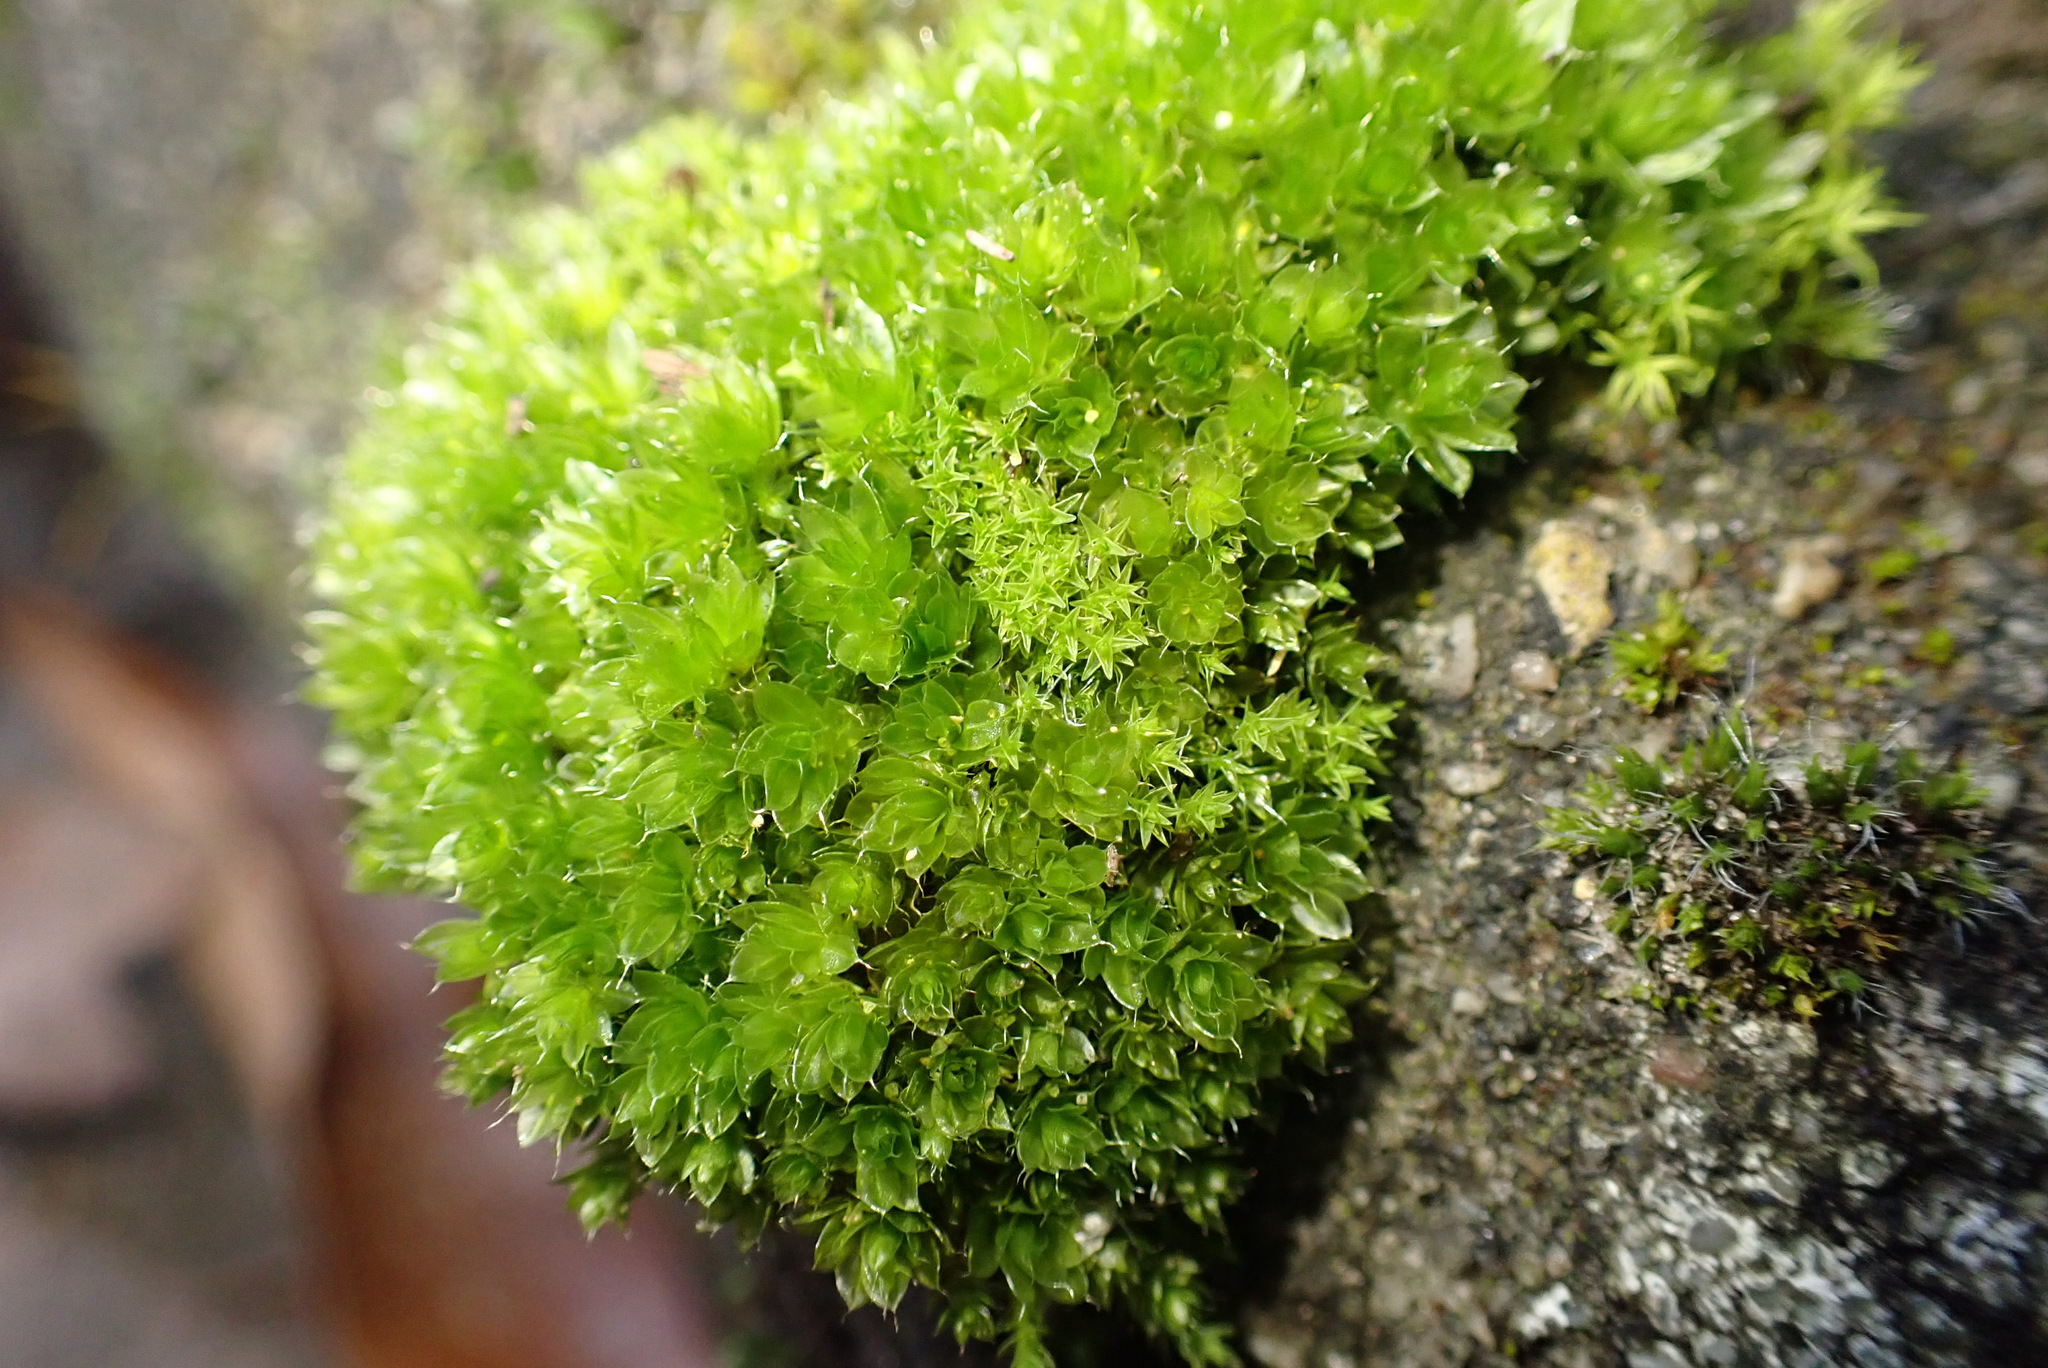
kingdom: Plantae
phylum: Bryophyta
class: Bryopsida
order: Bryales
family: Bryaceae
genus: Rosulabryum
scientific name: Rosulabryum capillare
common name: Capillary thread-moss
